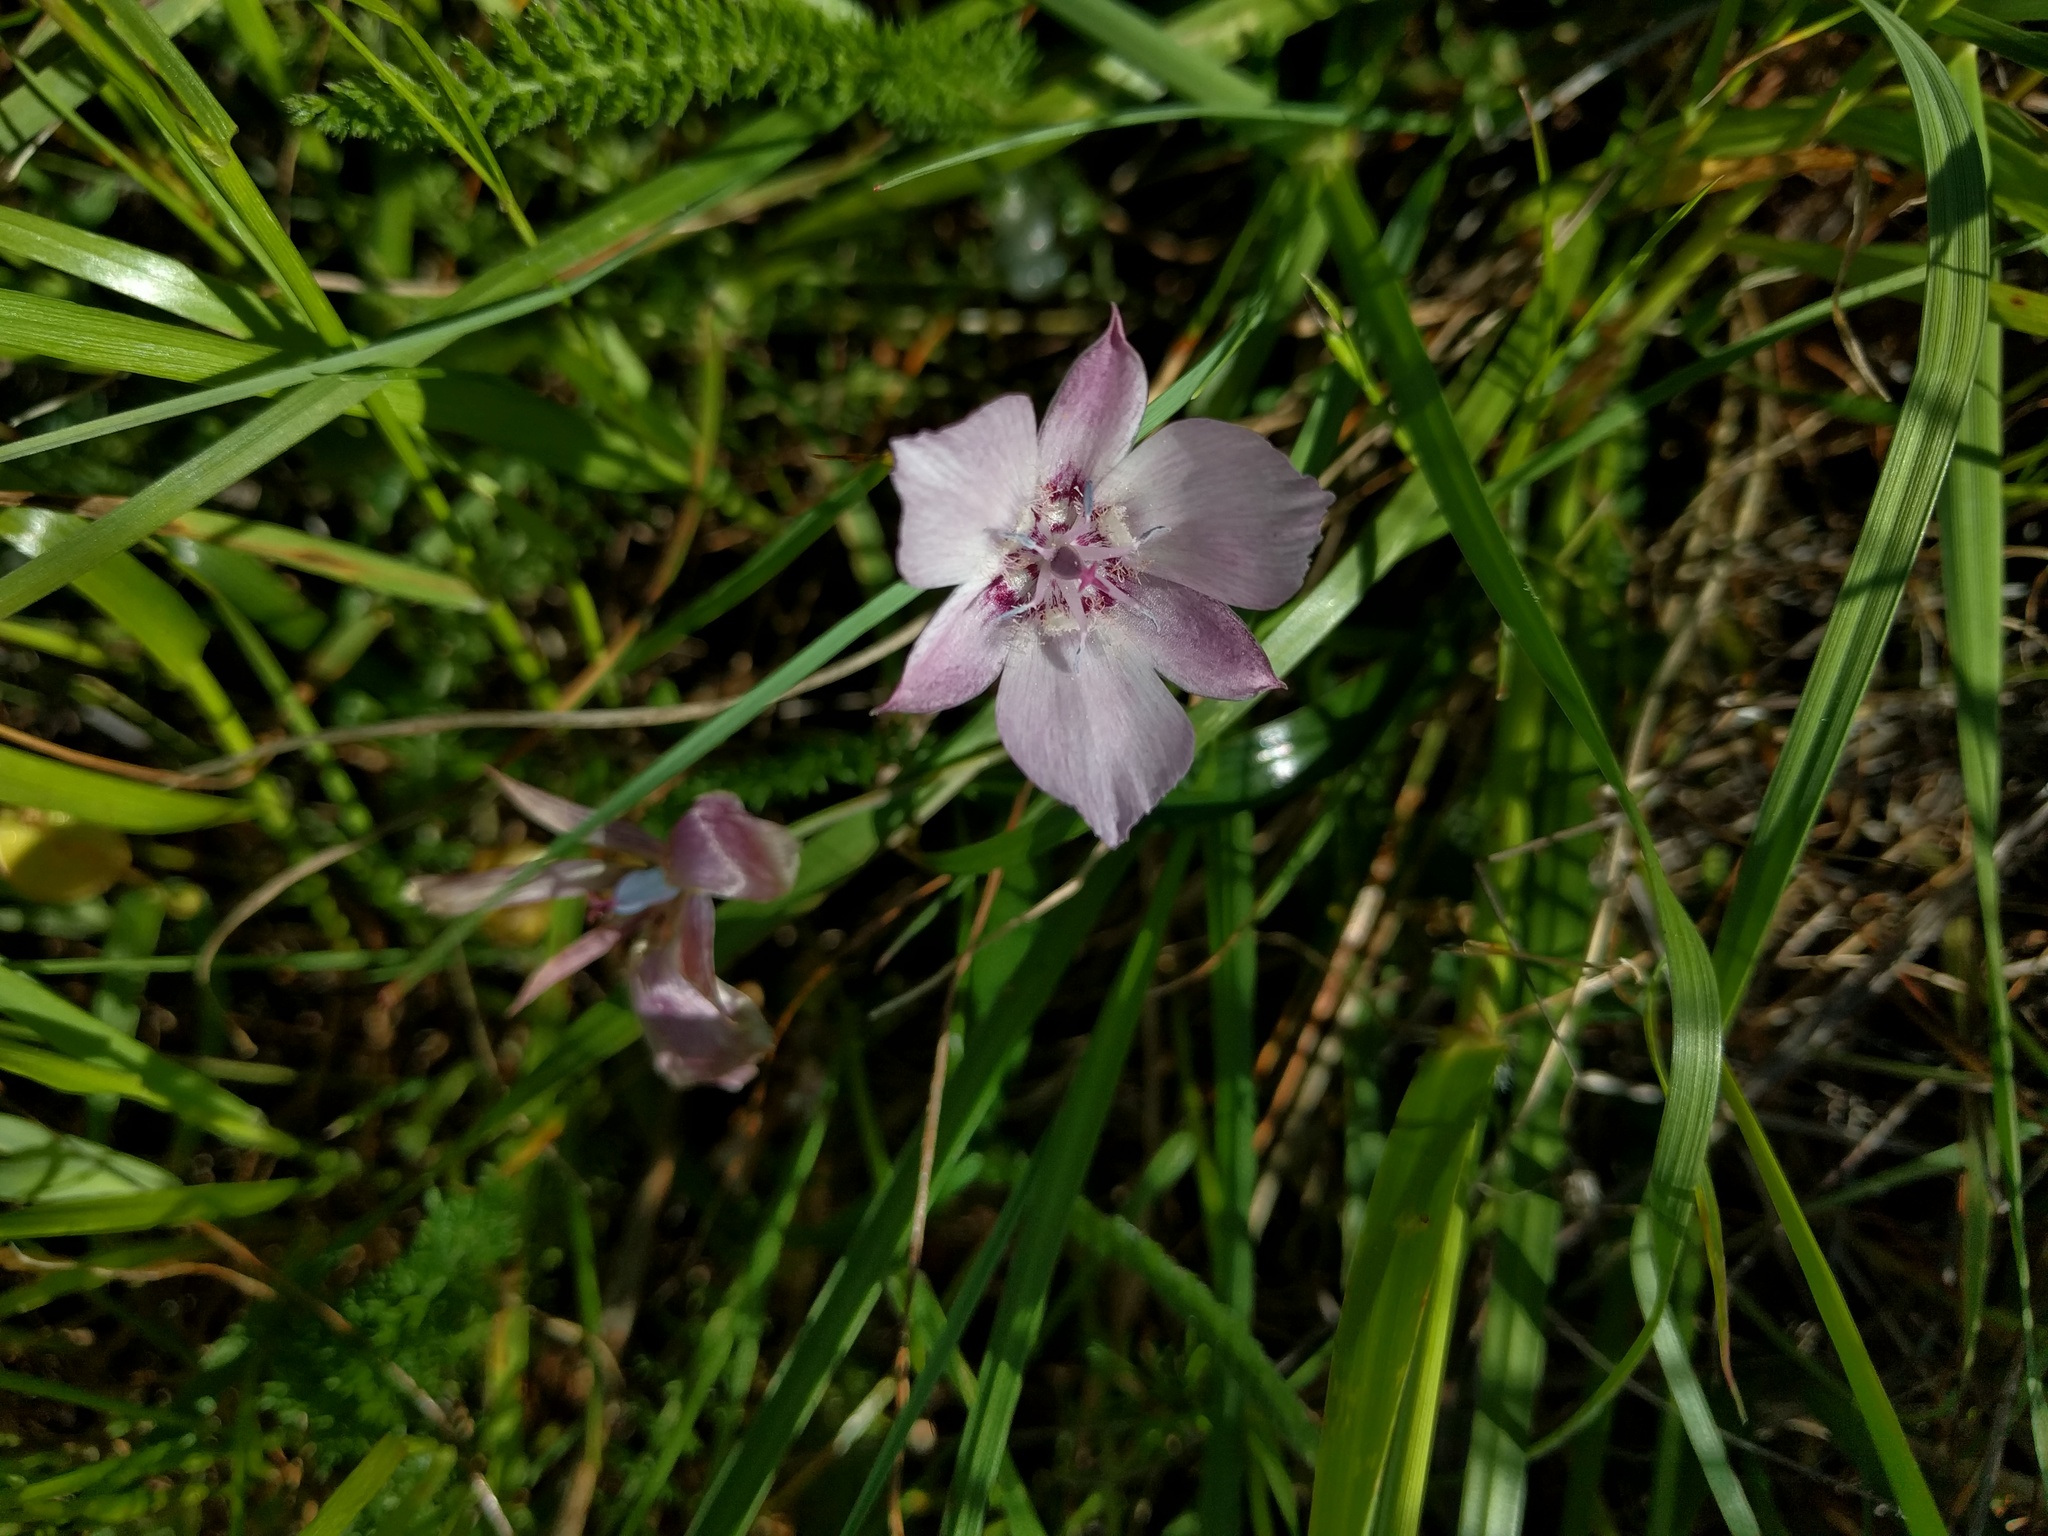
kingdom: Plantae
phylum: Tracheophyta
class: Liliopsida
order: Liliales
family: Liliaceae
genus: Calochortus
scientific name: Calochortus umbellatus
